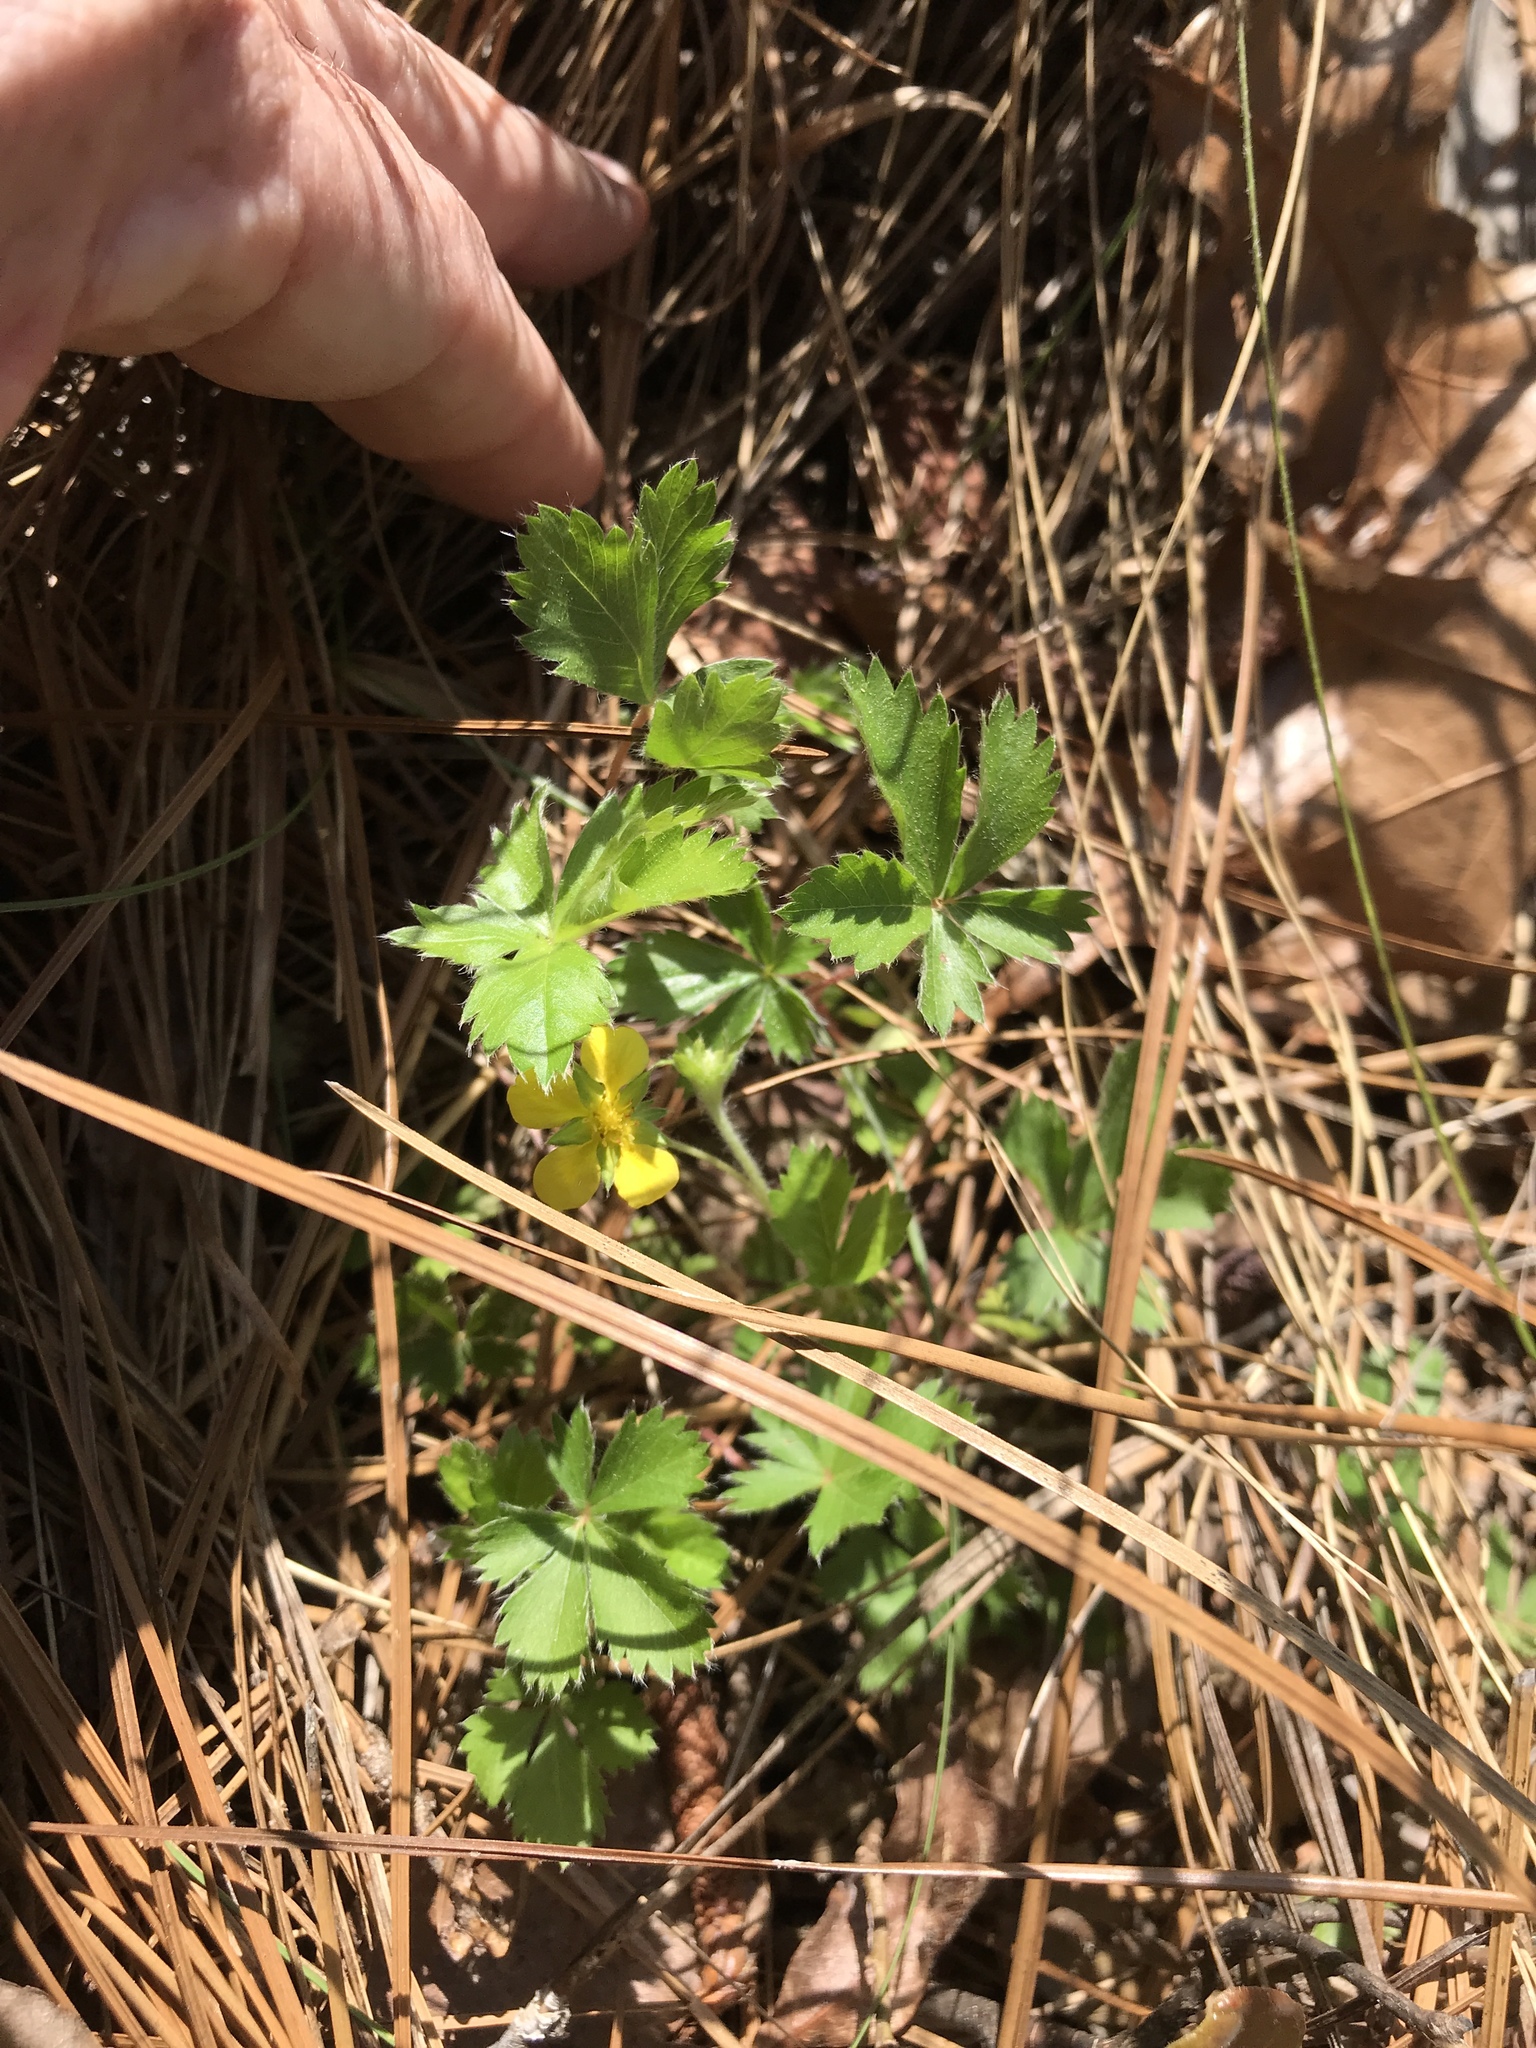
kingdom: Plantae
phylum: Tracheophyta
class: Magnoliopsida
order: Rosales
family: Rosaceae
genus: Potentilla
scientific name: Potentilla canadensis
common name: Canada cinquefoil
